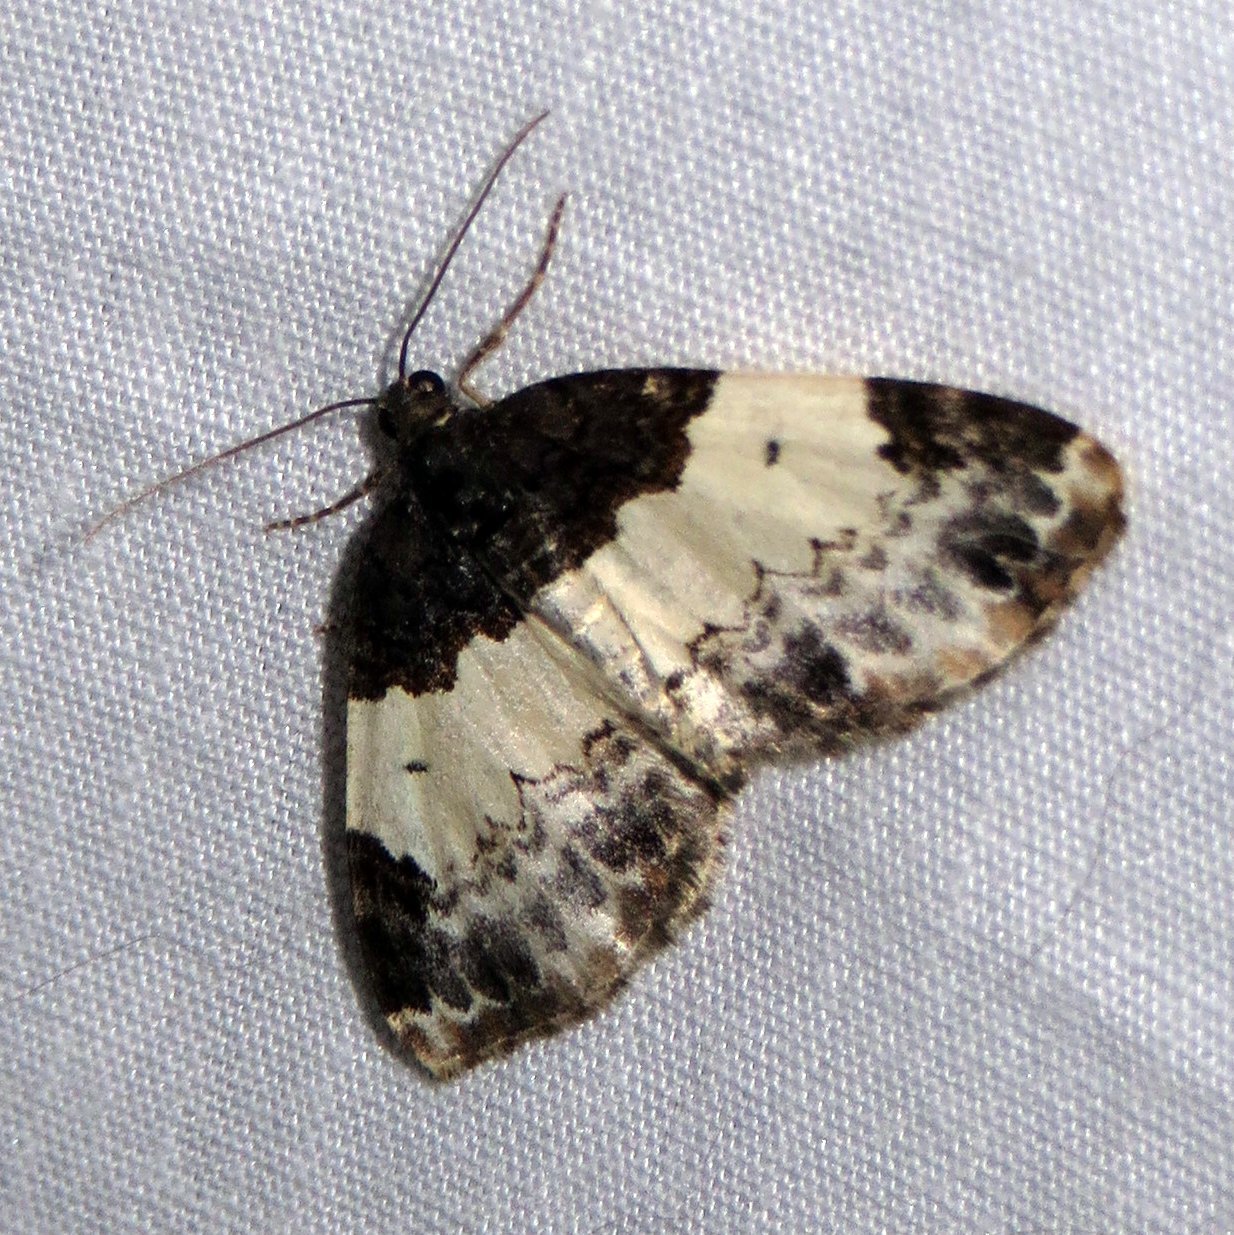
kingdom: Animalia
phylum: Arthropoda
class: Insecta
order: Lepidoptera
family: Geometridae
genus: Mesoleuca
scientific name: Mesoleuca ruficillata
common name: White-ribboned carpet moth
